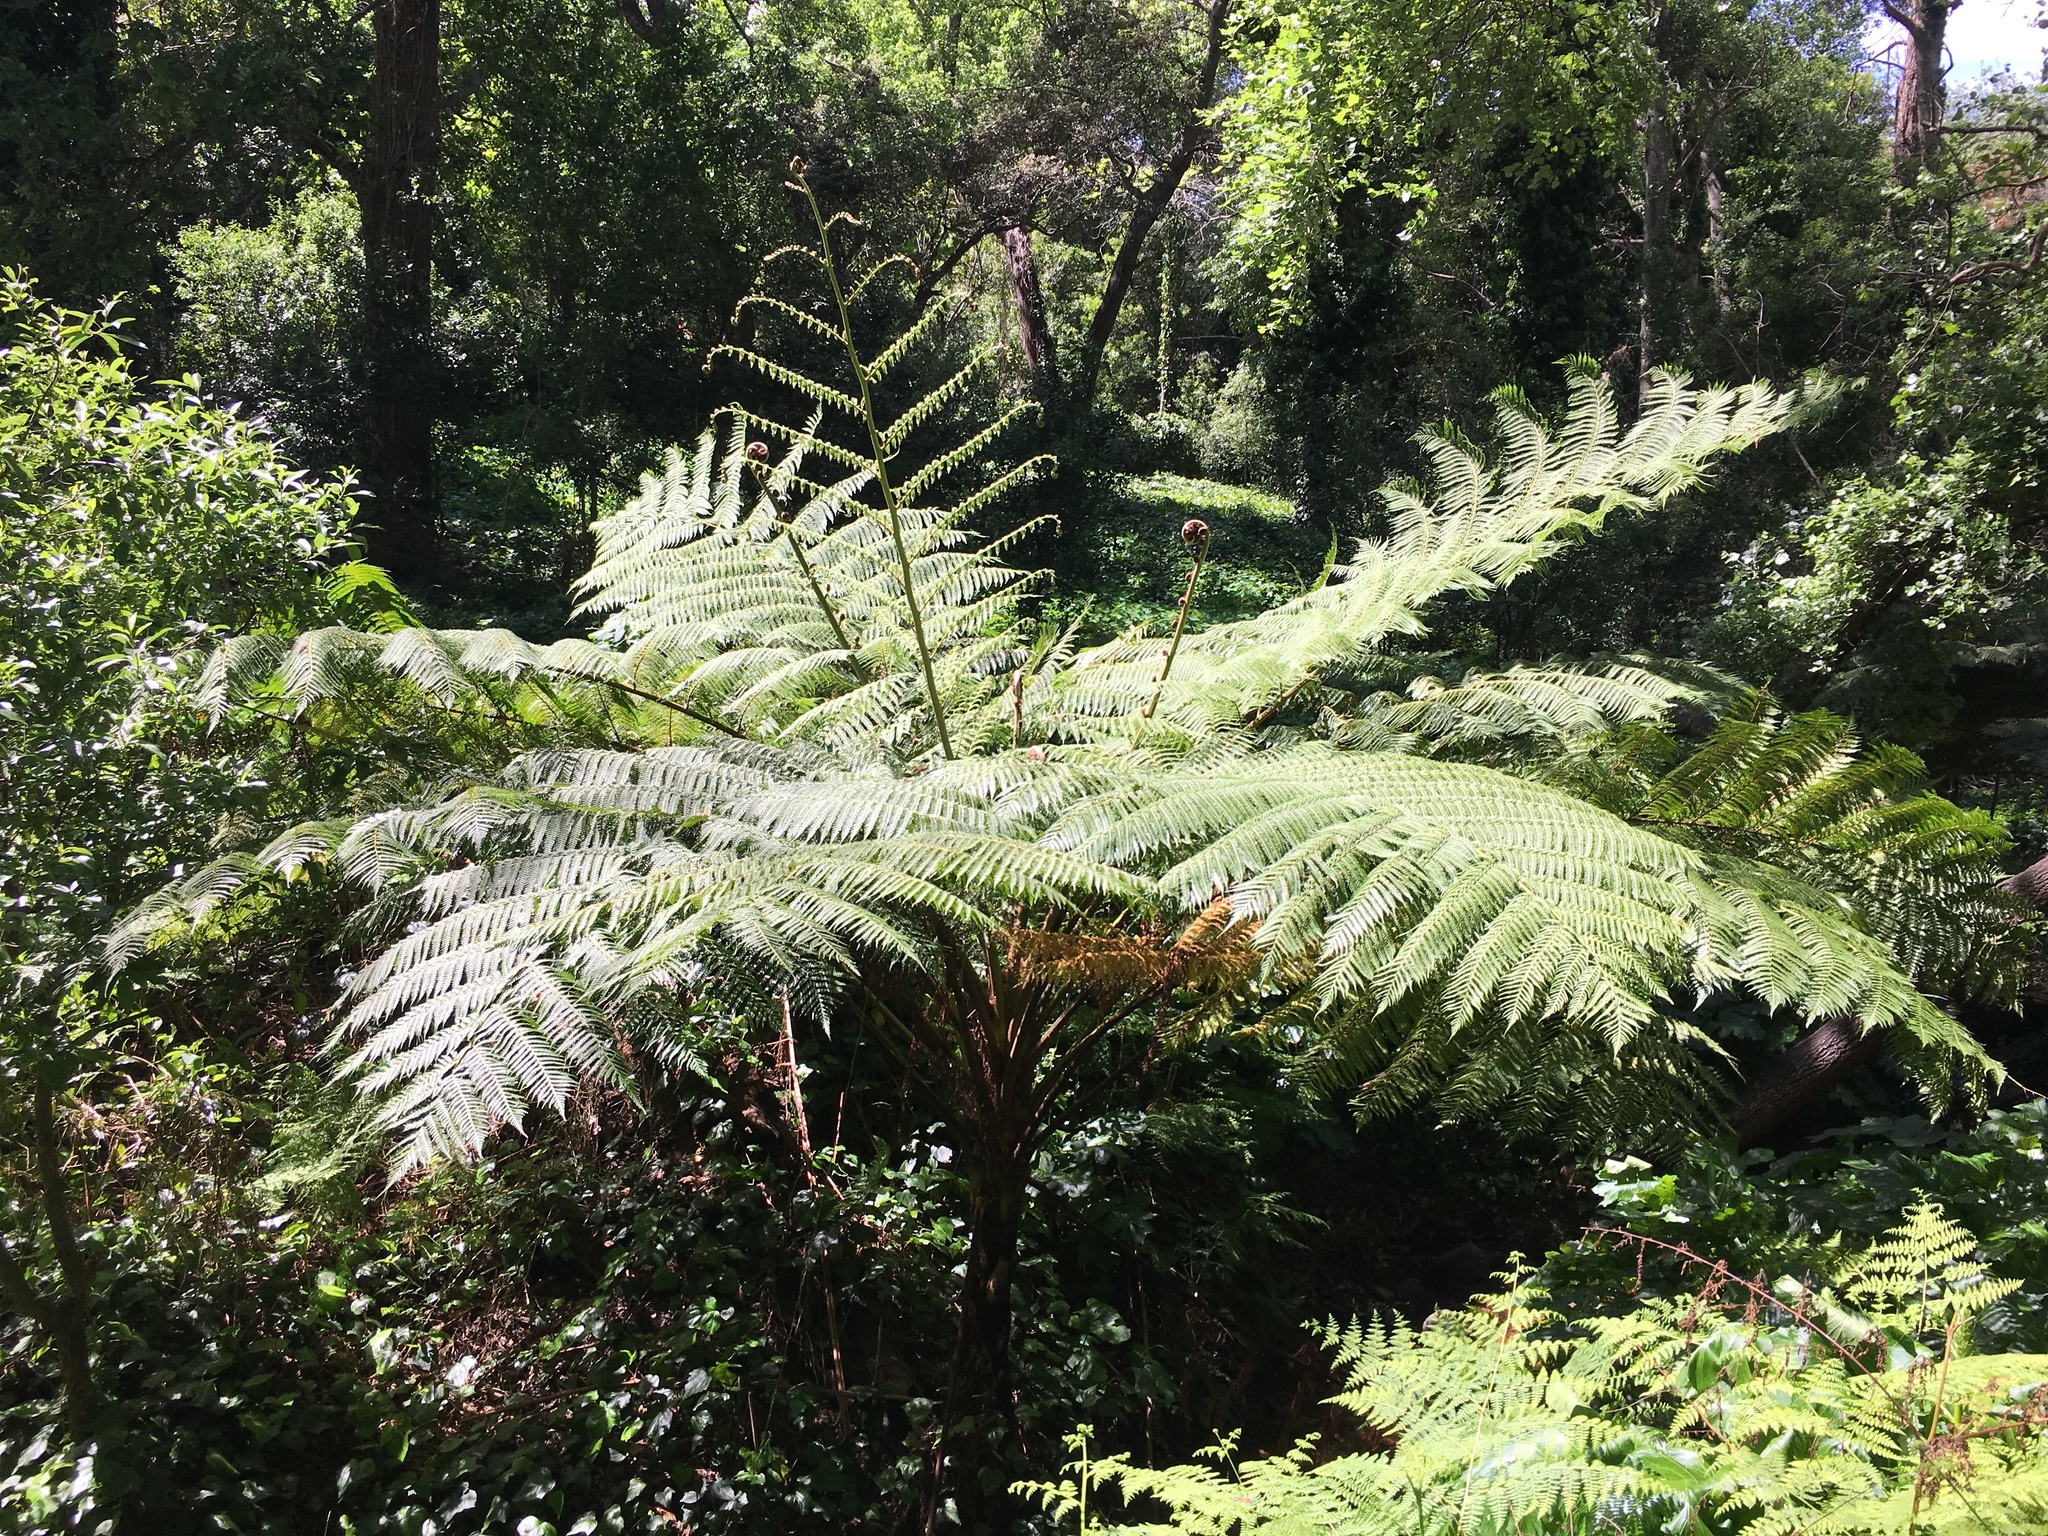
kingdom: Plantae
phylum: Tracheophyta
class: Polypodiopsida
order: Cyatheales
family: Cyatheaceae
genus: Sphaeropteris
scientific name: Sphaeropteris cooperi
